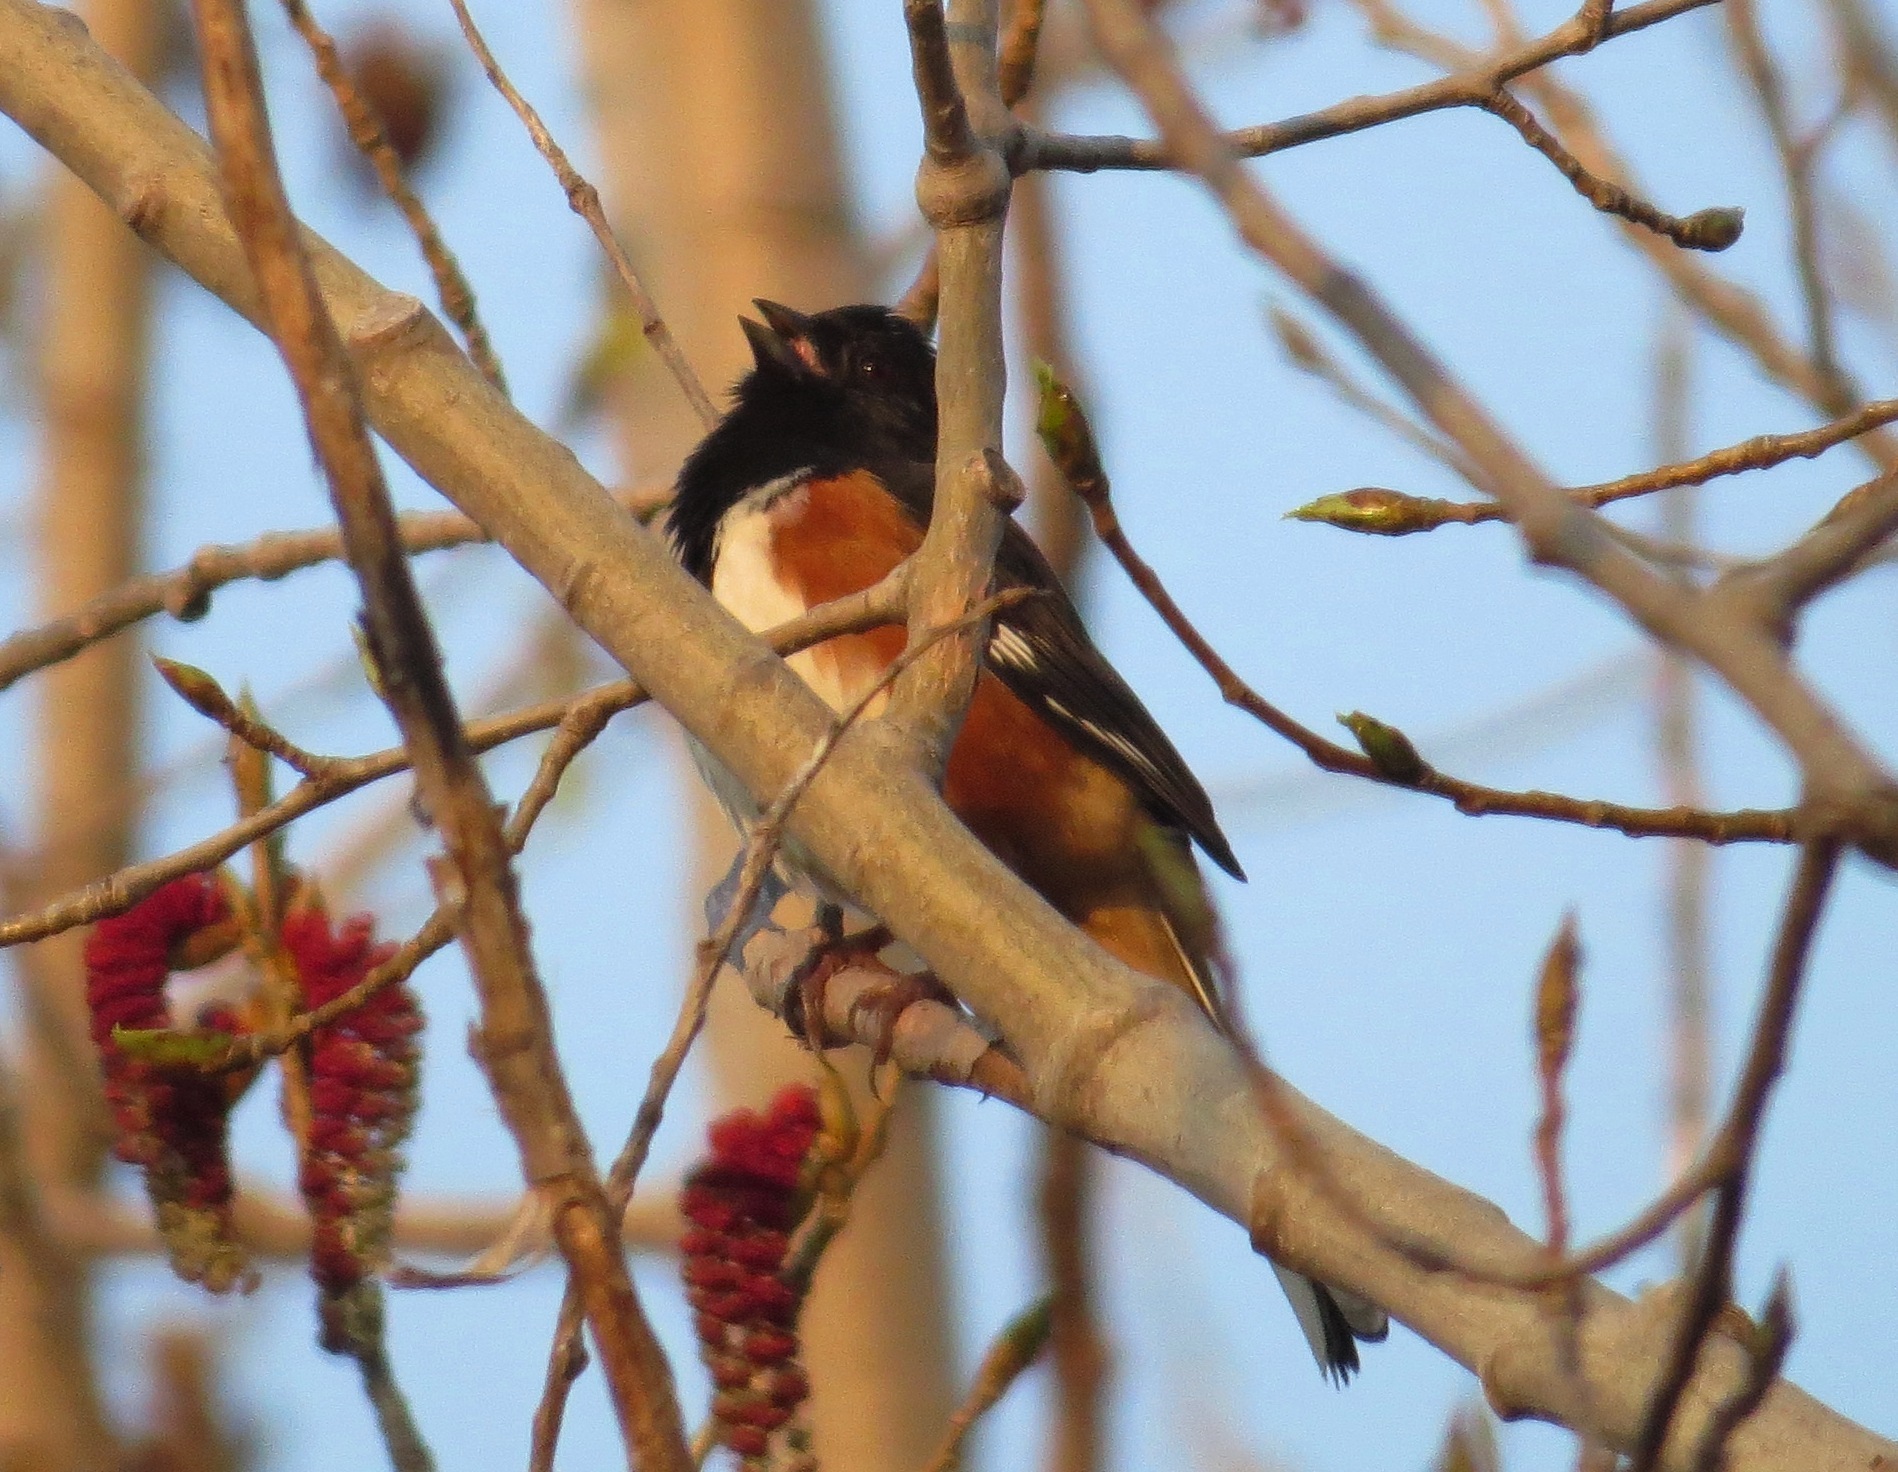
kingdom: Animalia
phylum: Chordata
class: Aves
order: Passeriformes
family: Passerellidae
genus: Pipilo
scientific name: Pipilo erythrophthalmus
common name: Eastern towhee
